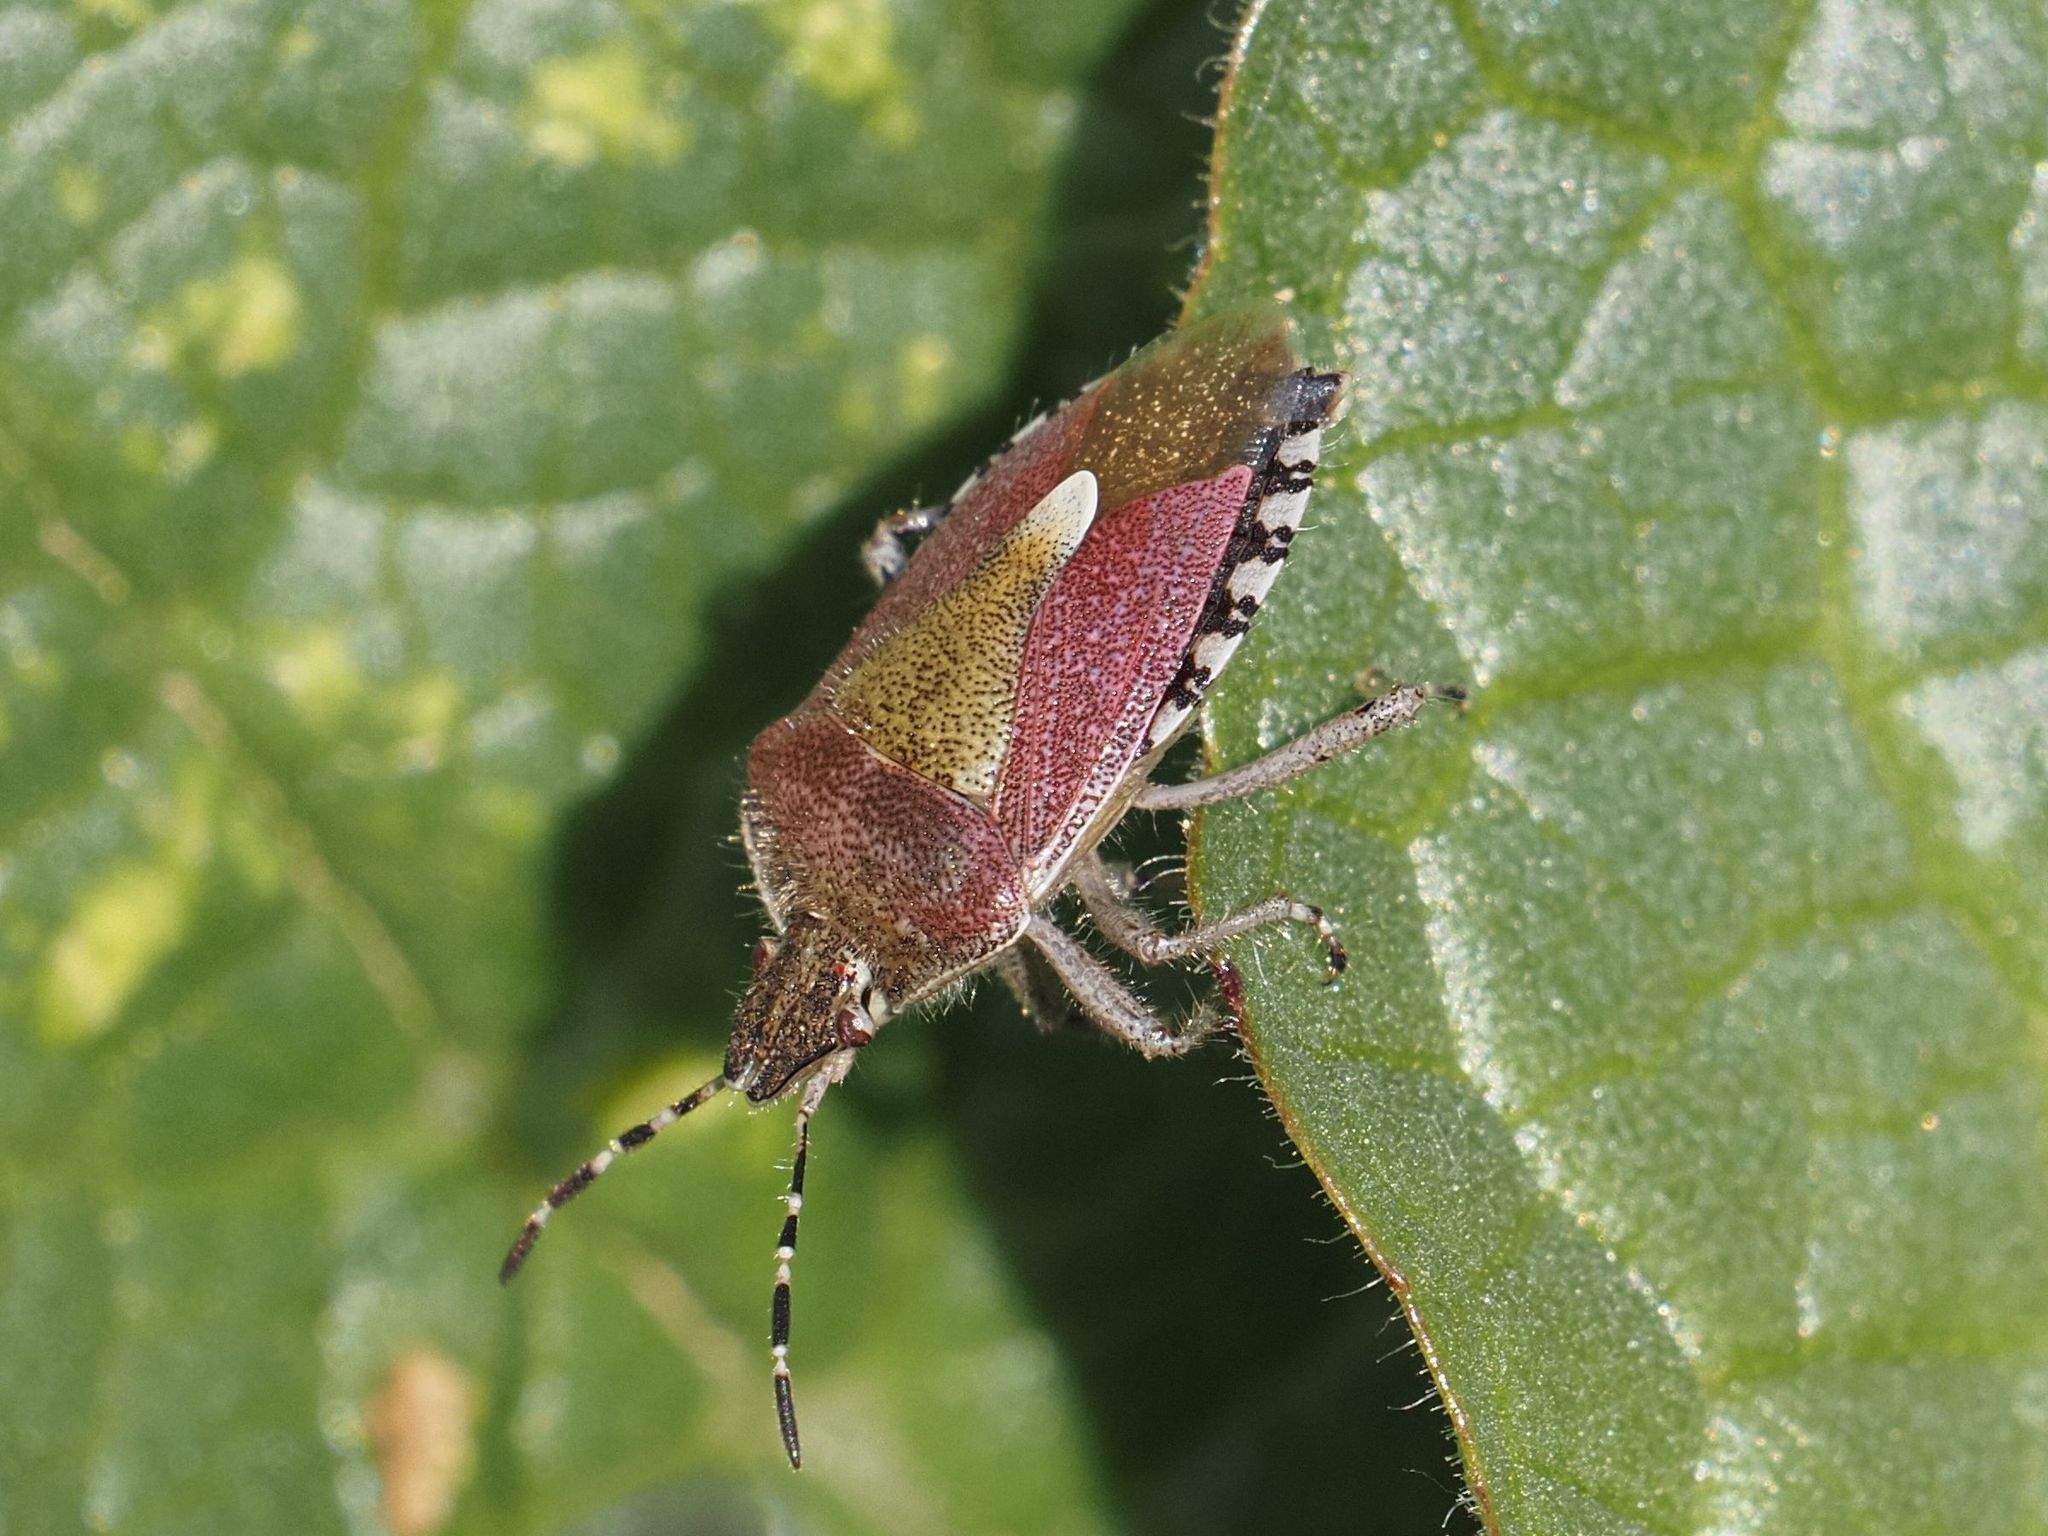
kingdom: Animalia
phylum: Arthropoda
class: Insecta
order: Hemiptera
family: Pentatomidae
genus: Dolycoris
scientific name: Dolycoris baccarum
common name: Sloe bug
